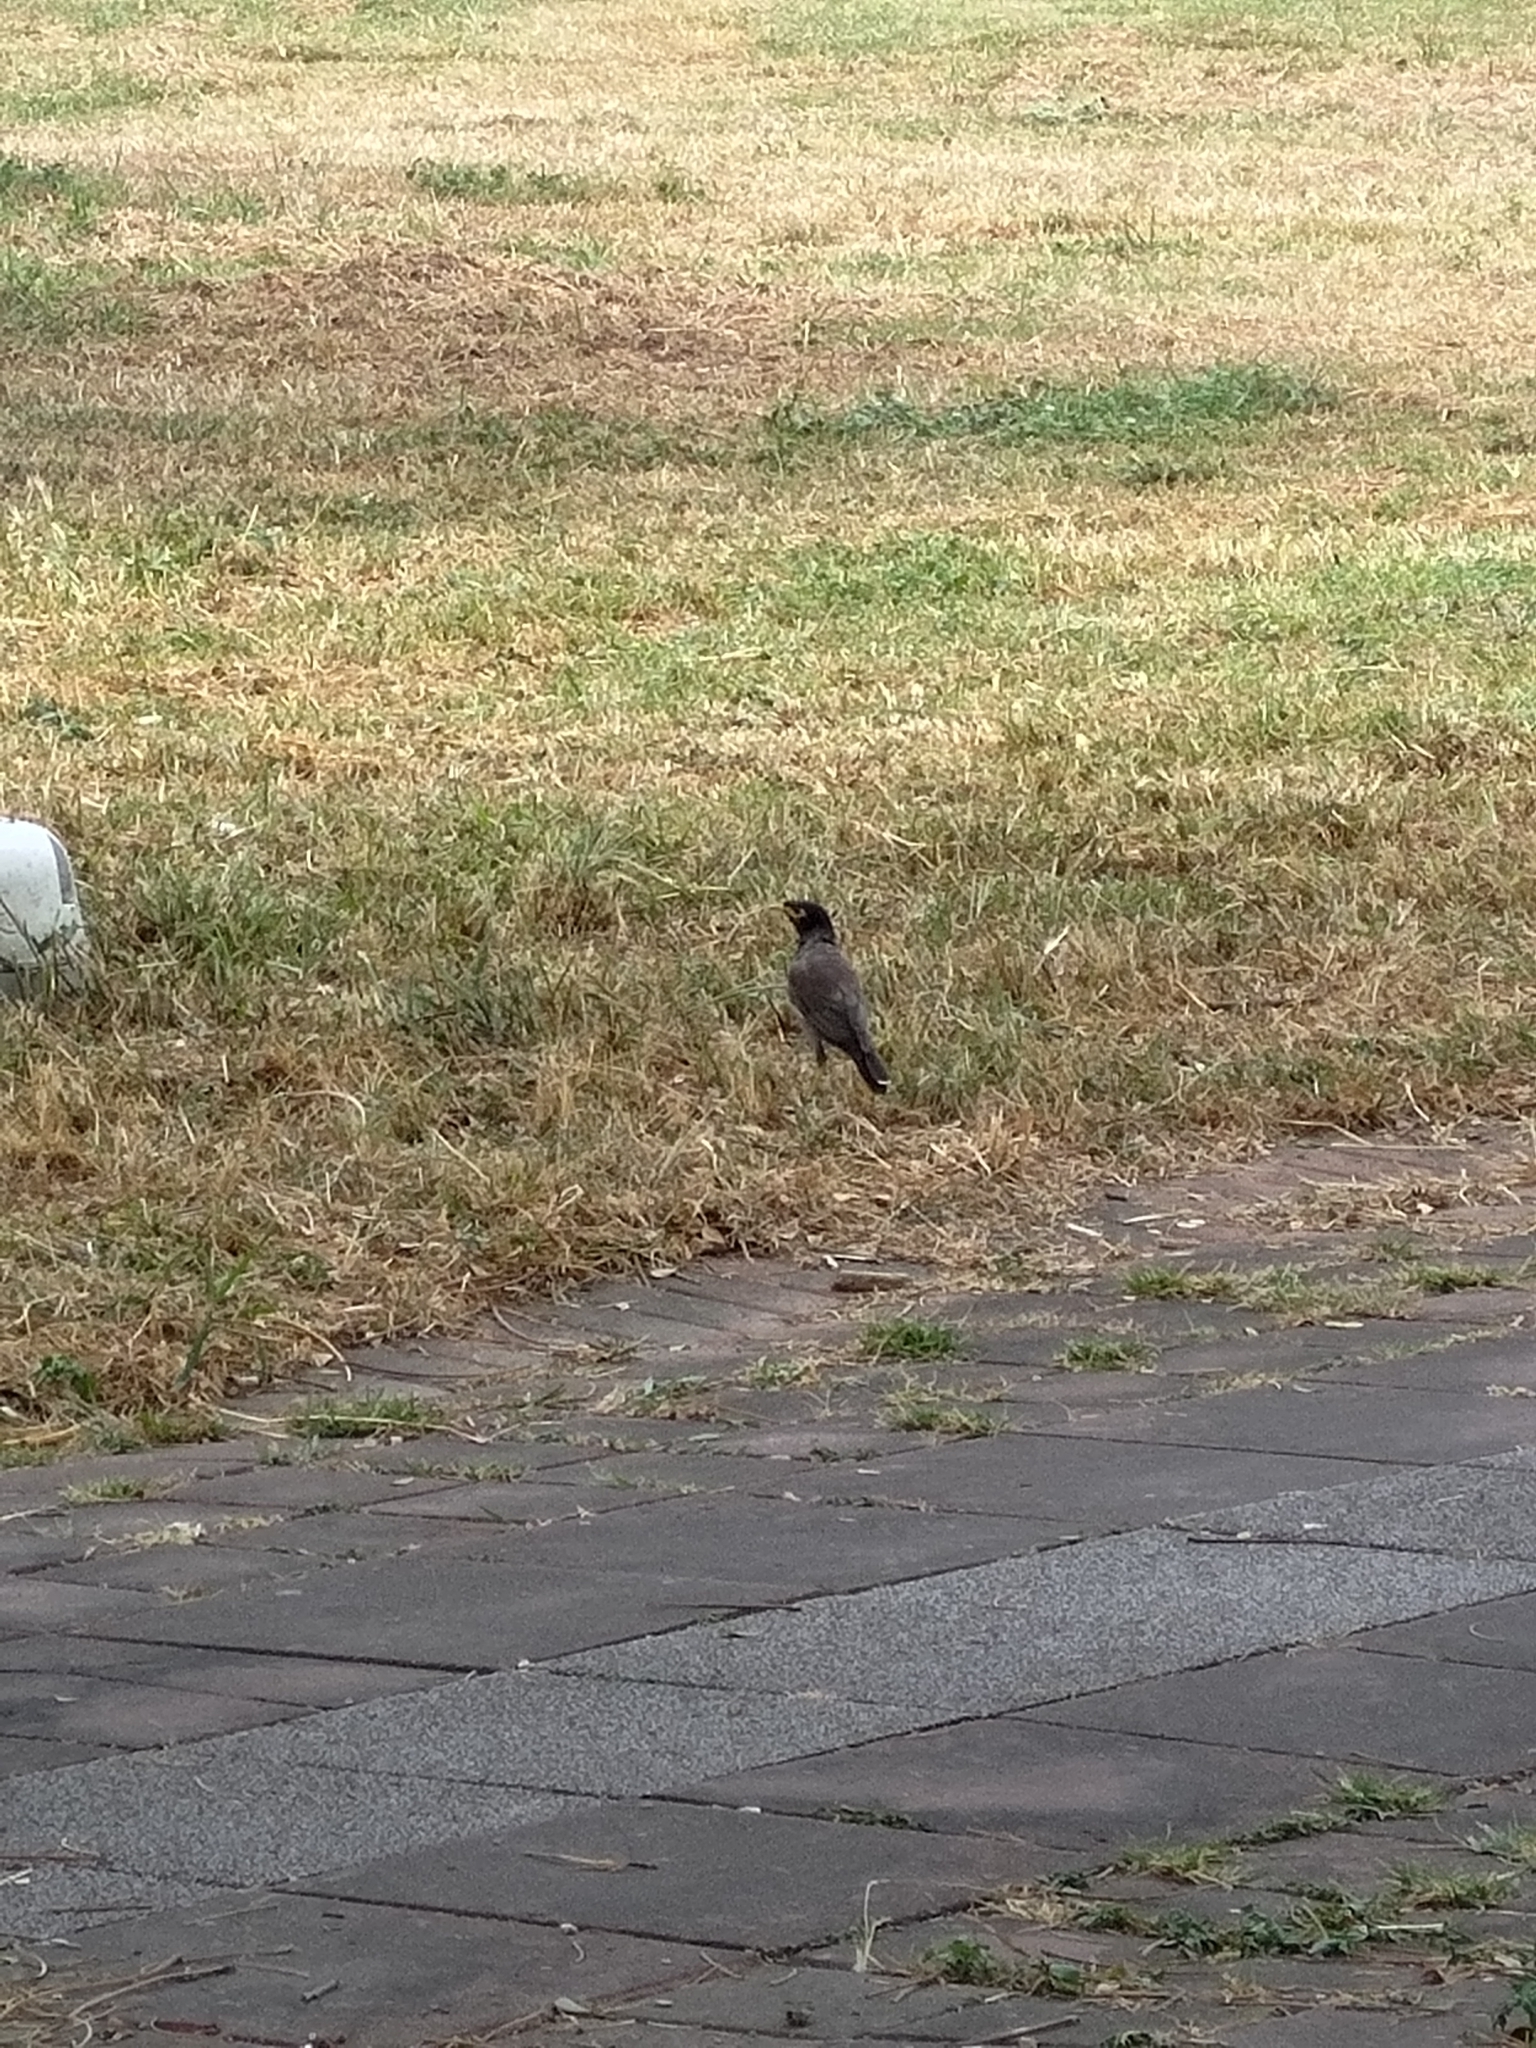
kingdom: Animalia
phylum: Chordata
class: Aves
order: Passeriformes
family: Sturnidae
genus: Acridotheres
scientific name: Acridotheres tristis
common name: Common myna
